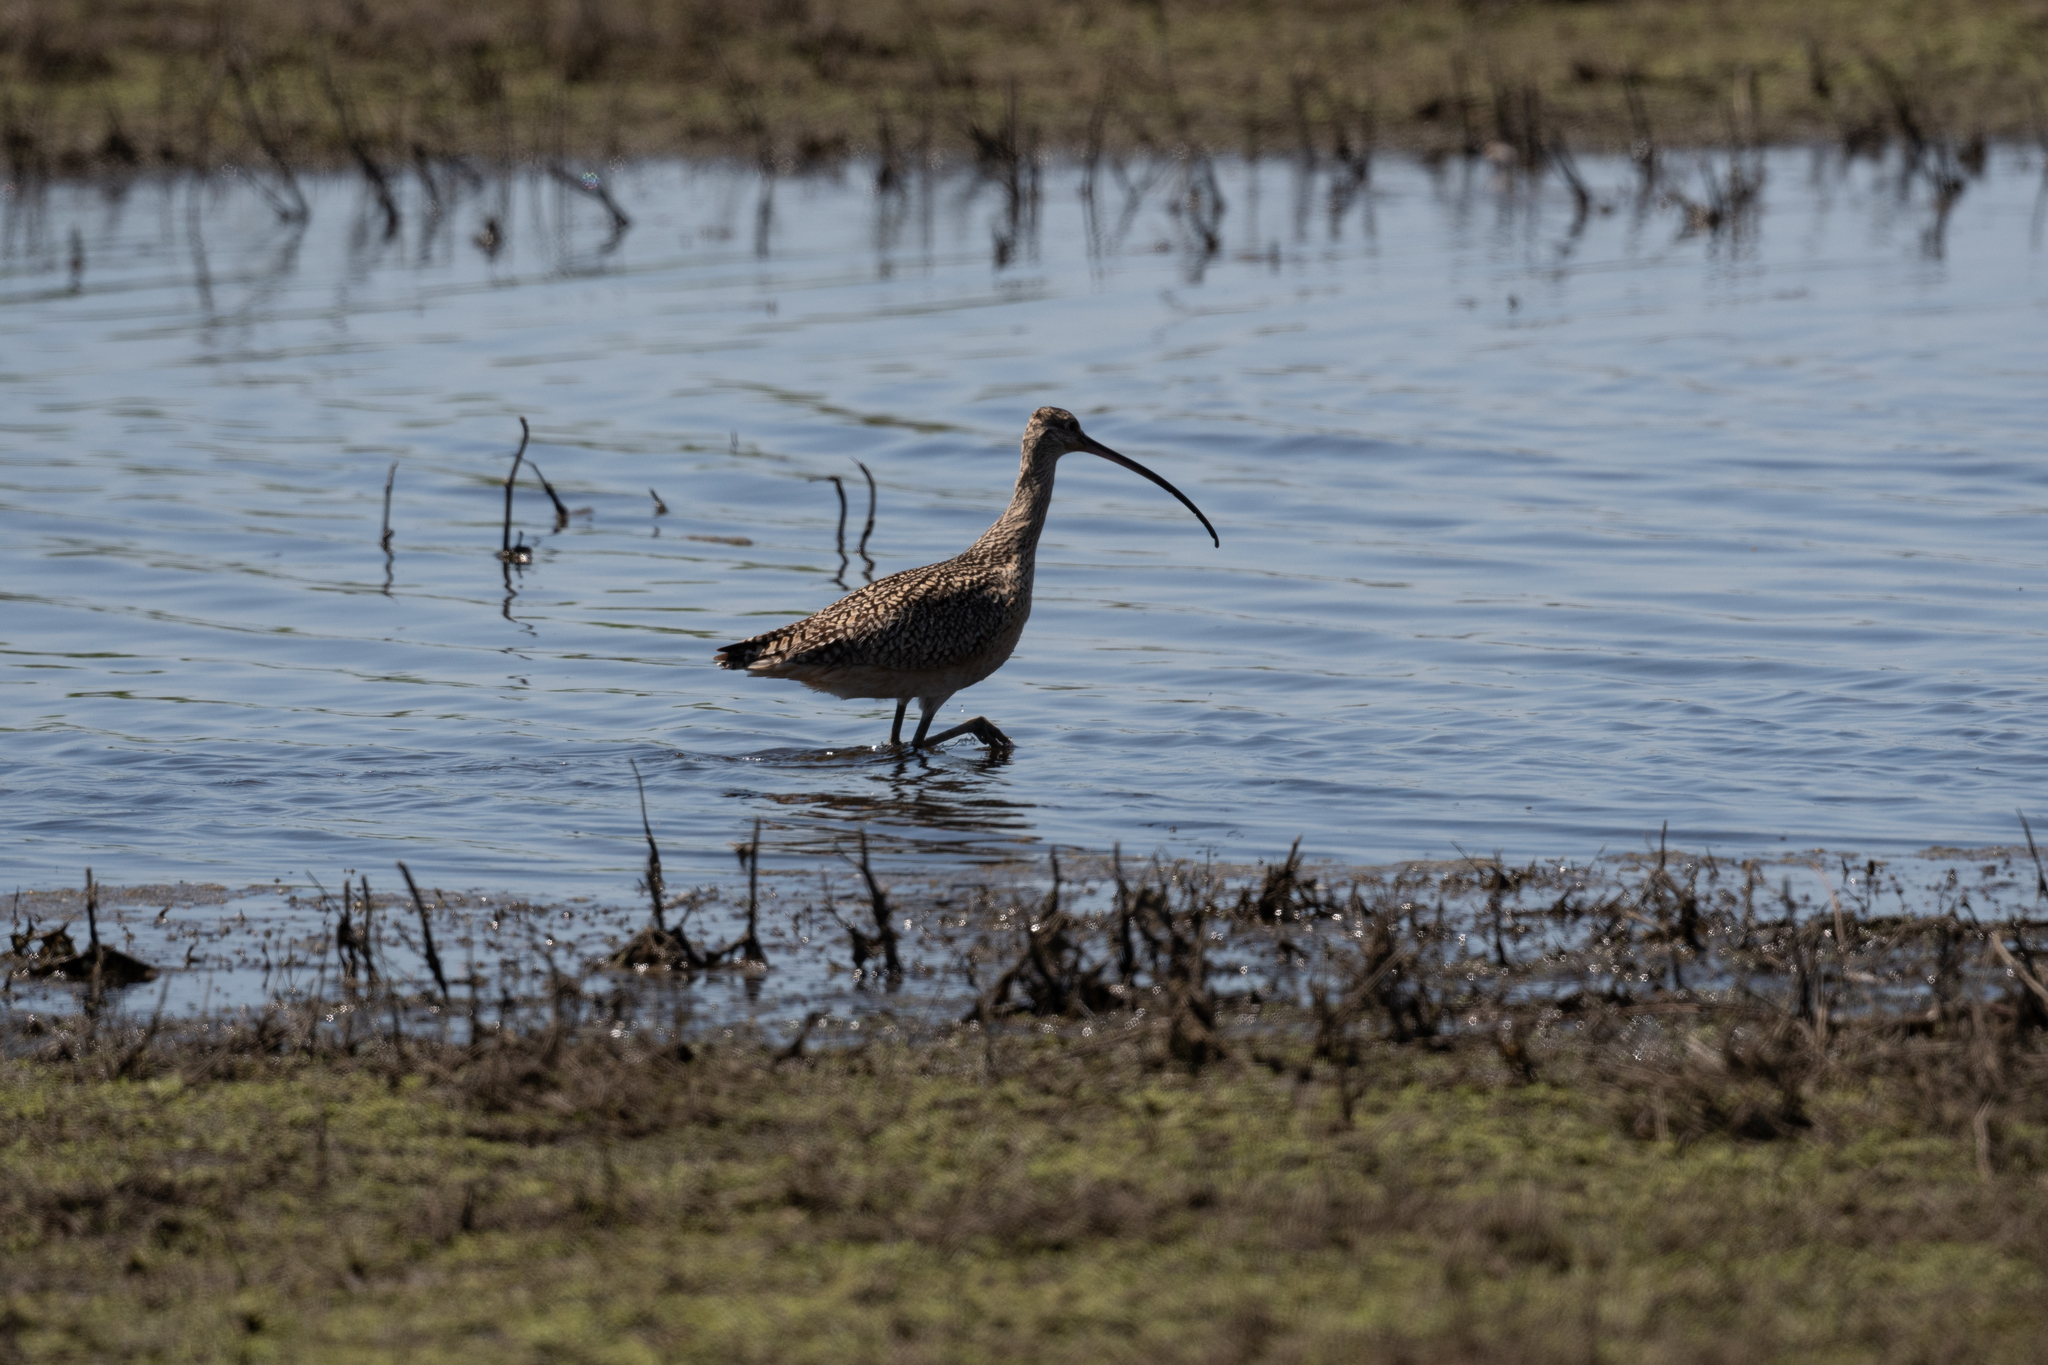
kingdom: Animalia
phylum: Chordata
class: Aves
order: Charadriiformes
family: Scolopacidae
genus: Numenius
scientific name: Numenius americanus
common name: Long-billed curlew
